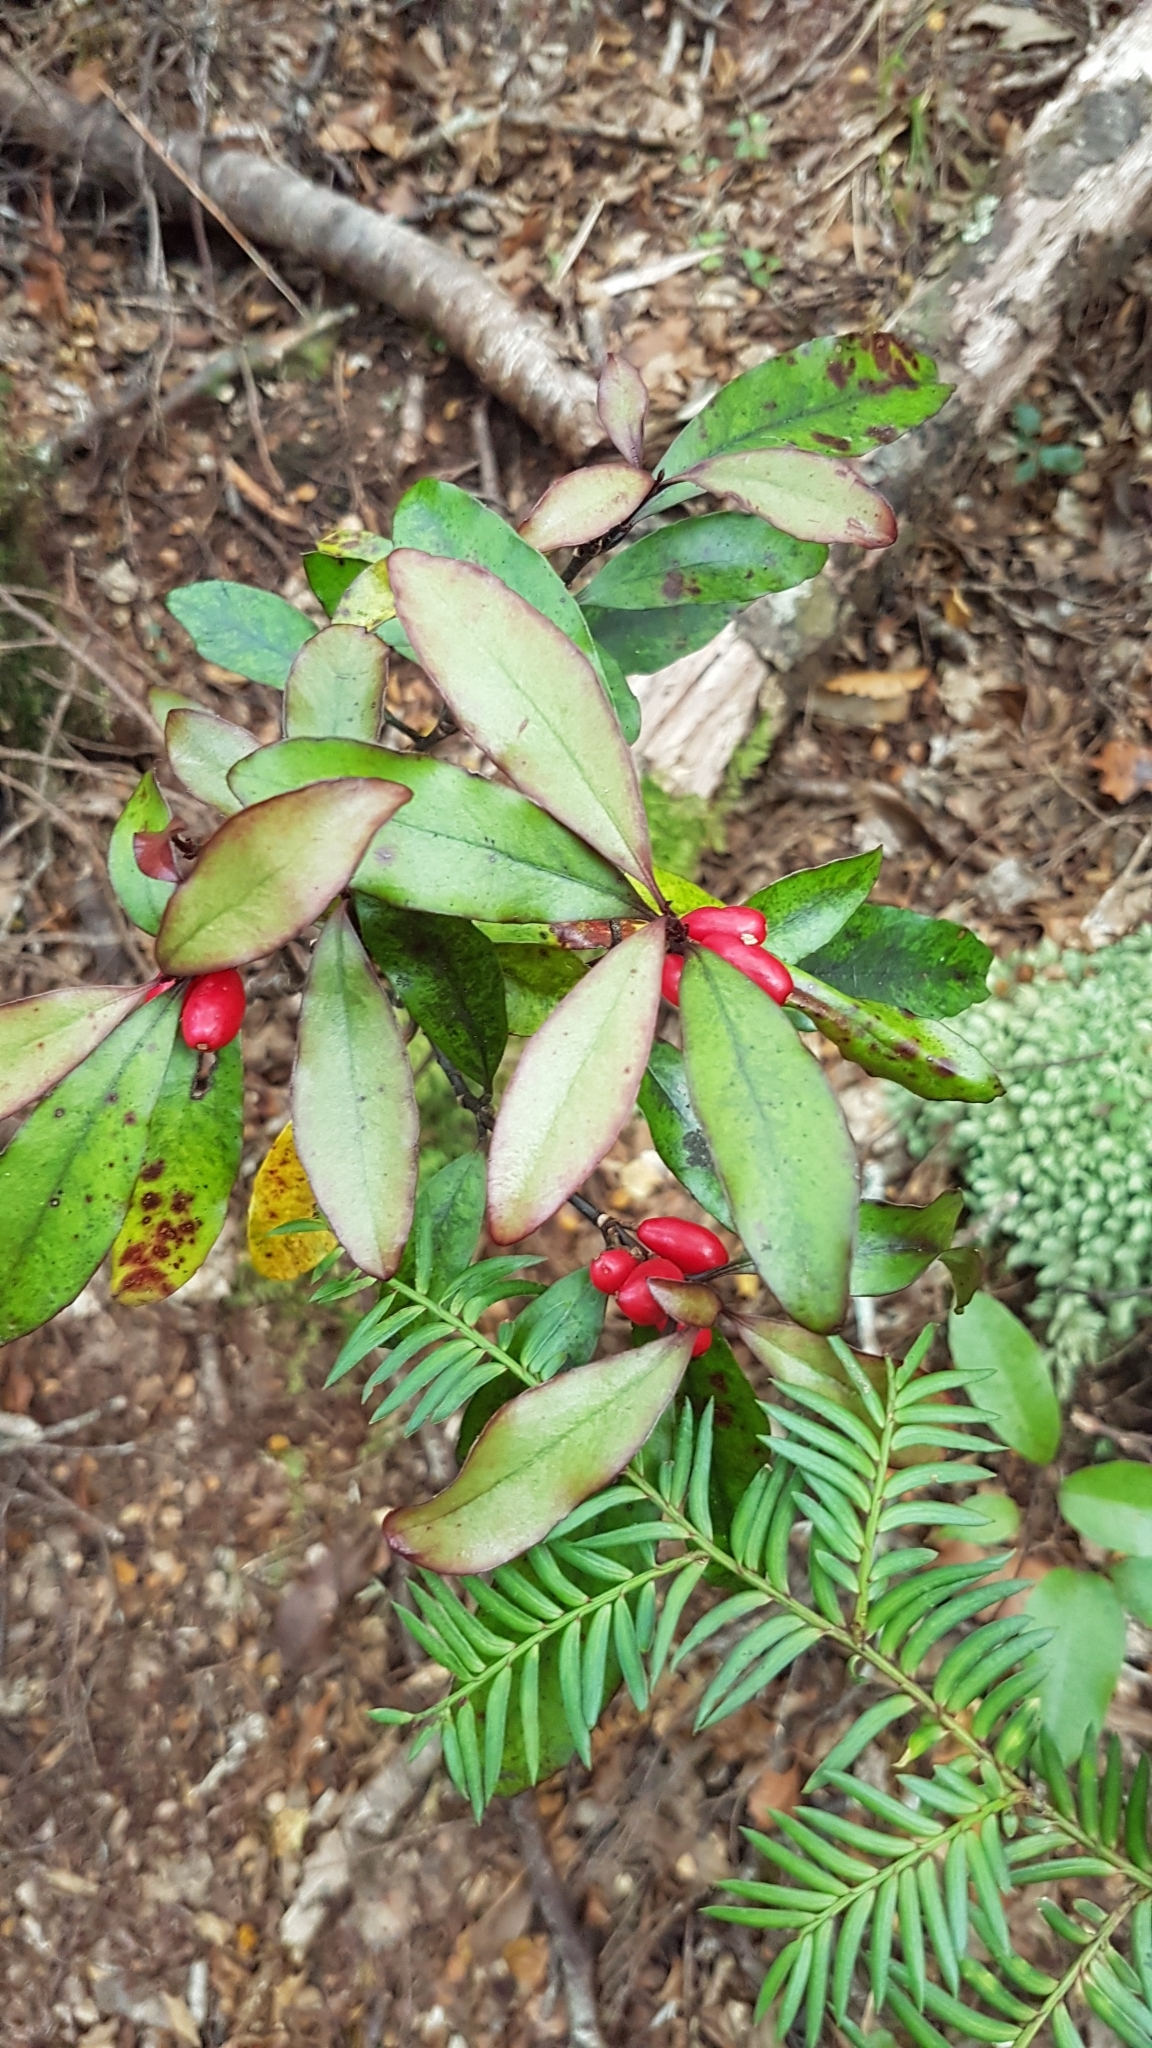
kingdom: Plantae
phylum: Tracheophyta
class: Magnoliopsida
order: Asterales
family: Alseuosmiaceae
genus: Alseuosmia
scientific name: Alseuosmia pusilla
